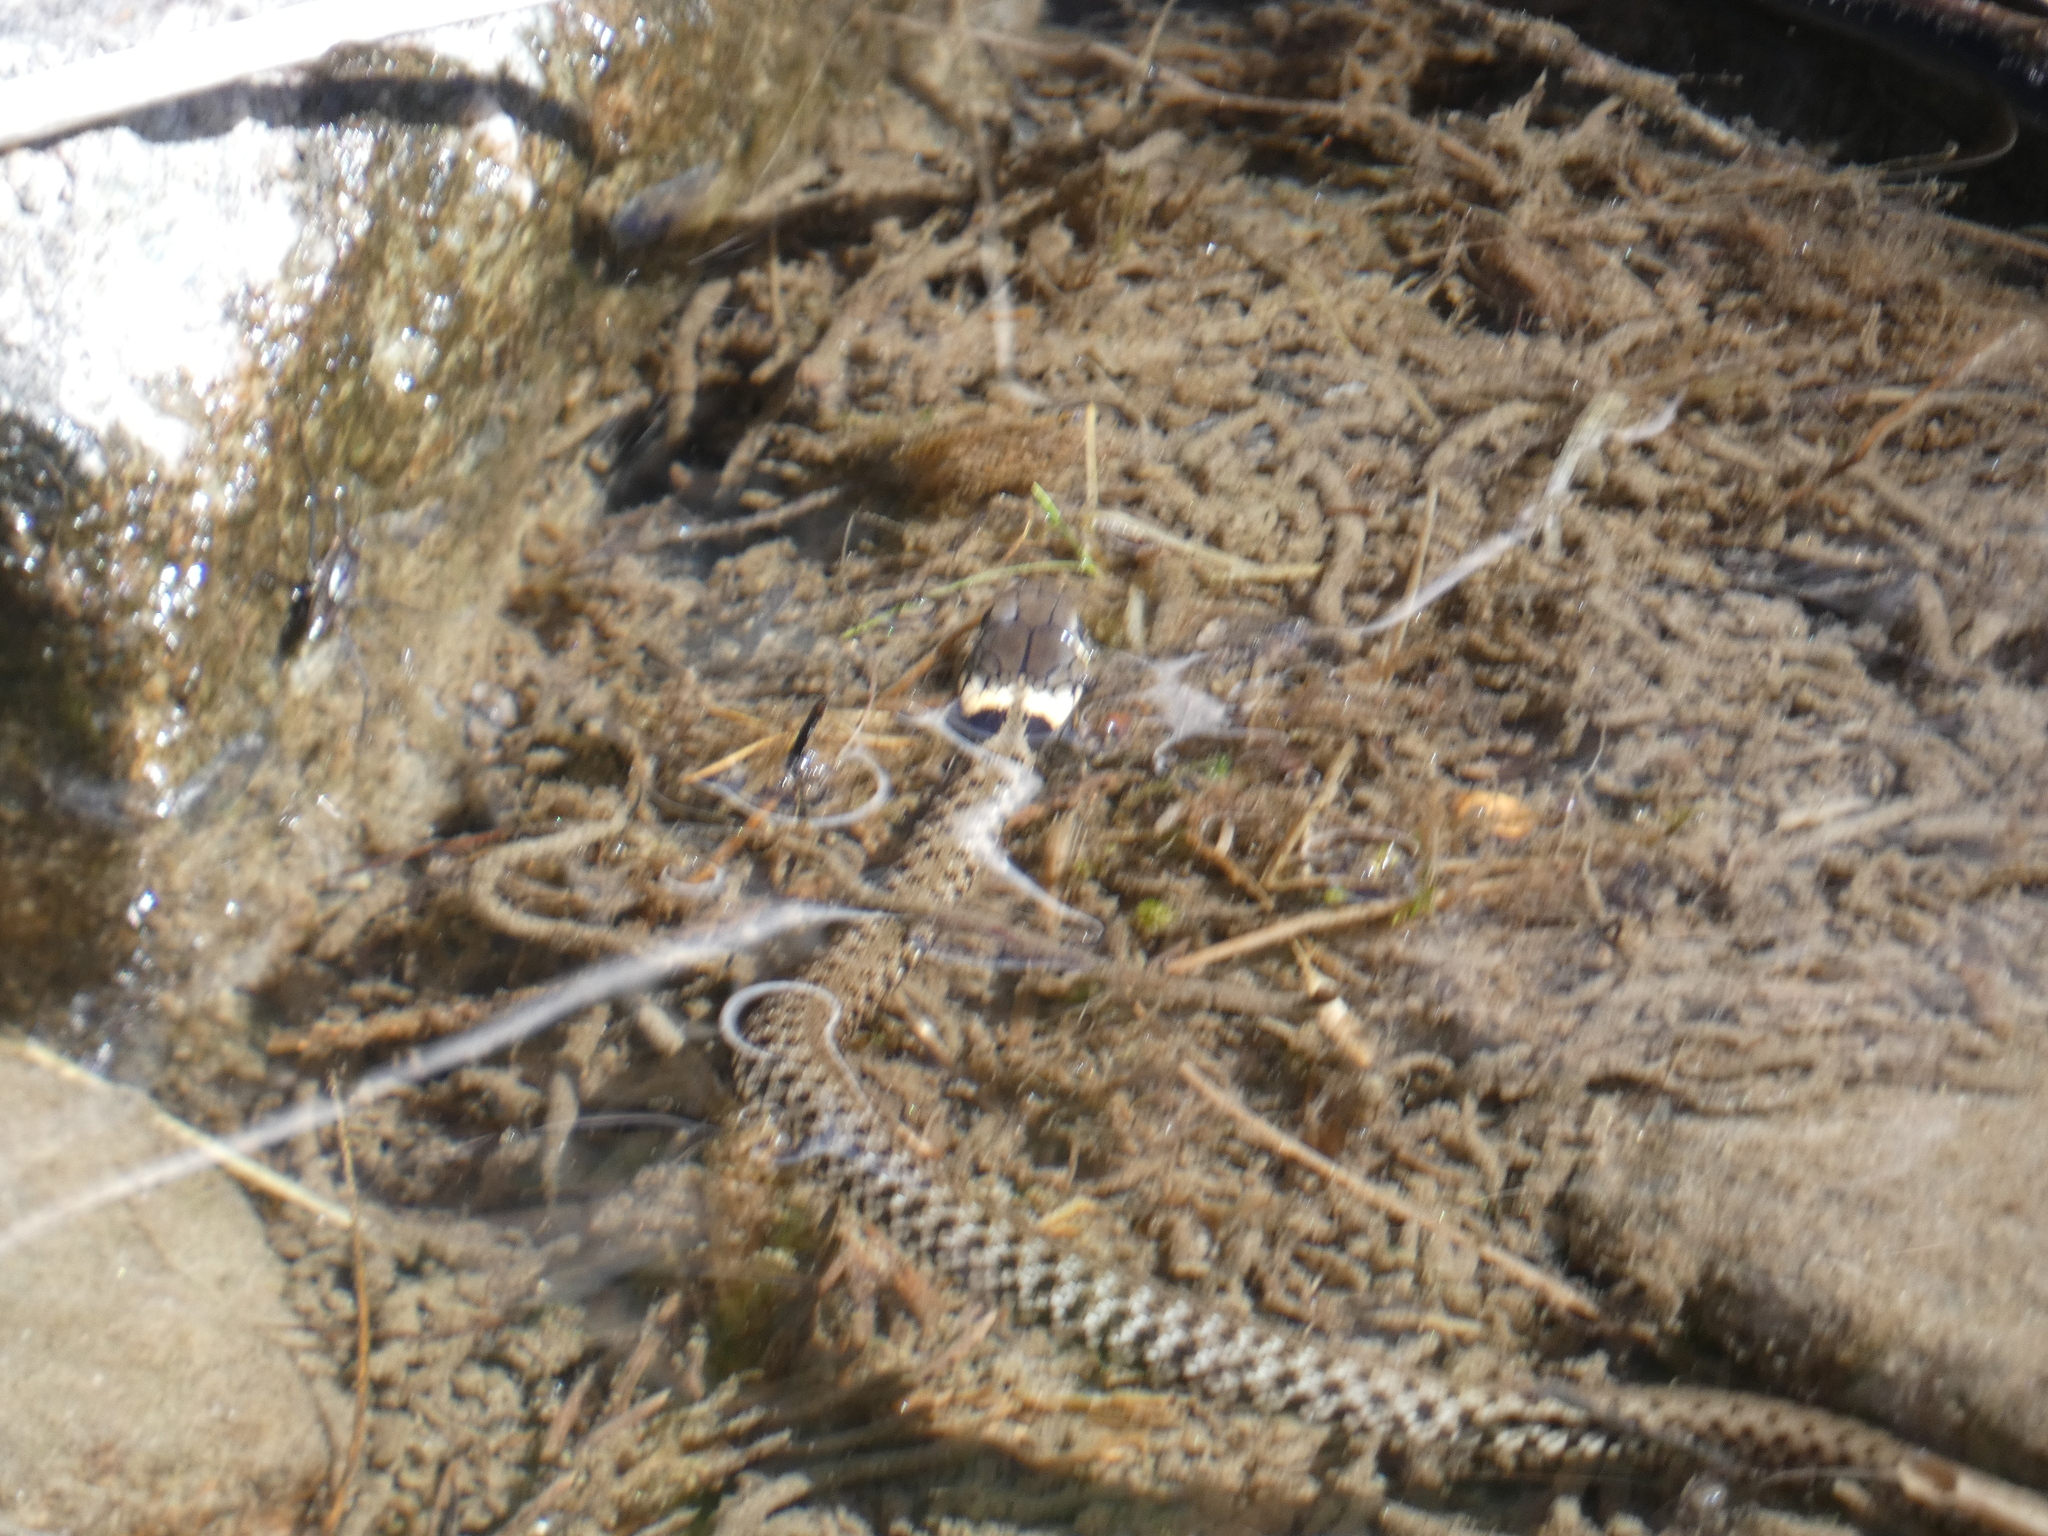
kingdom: Animalia
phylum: Chordata
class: Squamata
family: Colubridae
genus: Natrix
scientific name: Natrix helvetica
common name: Banded grass snake
